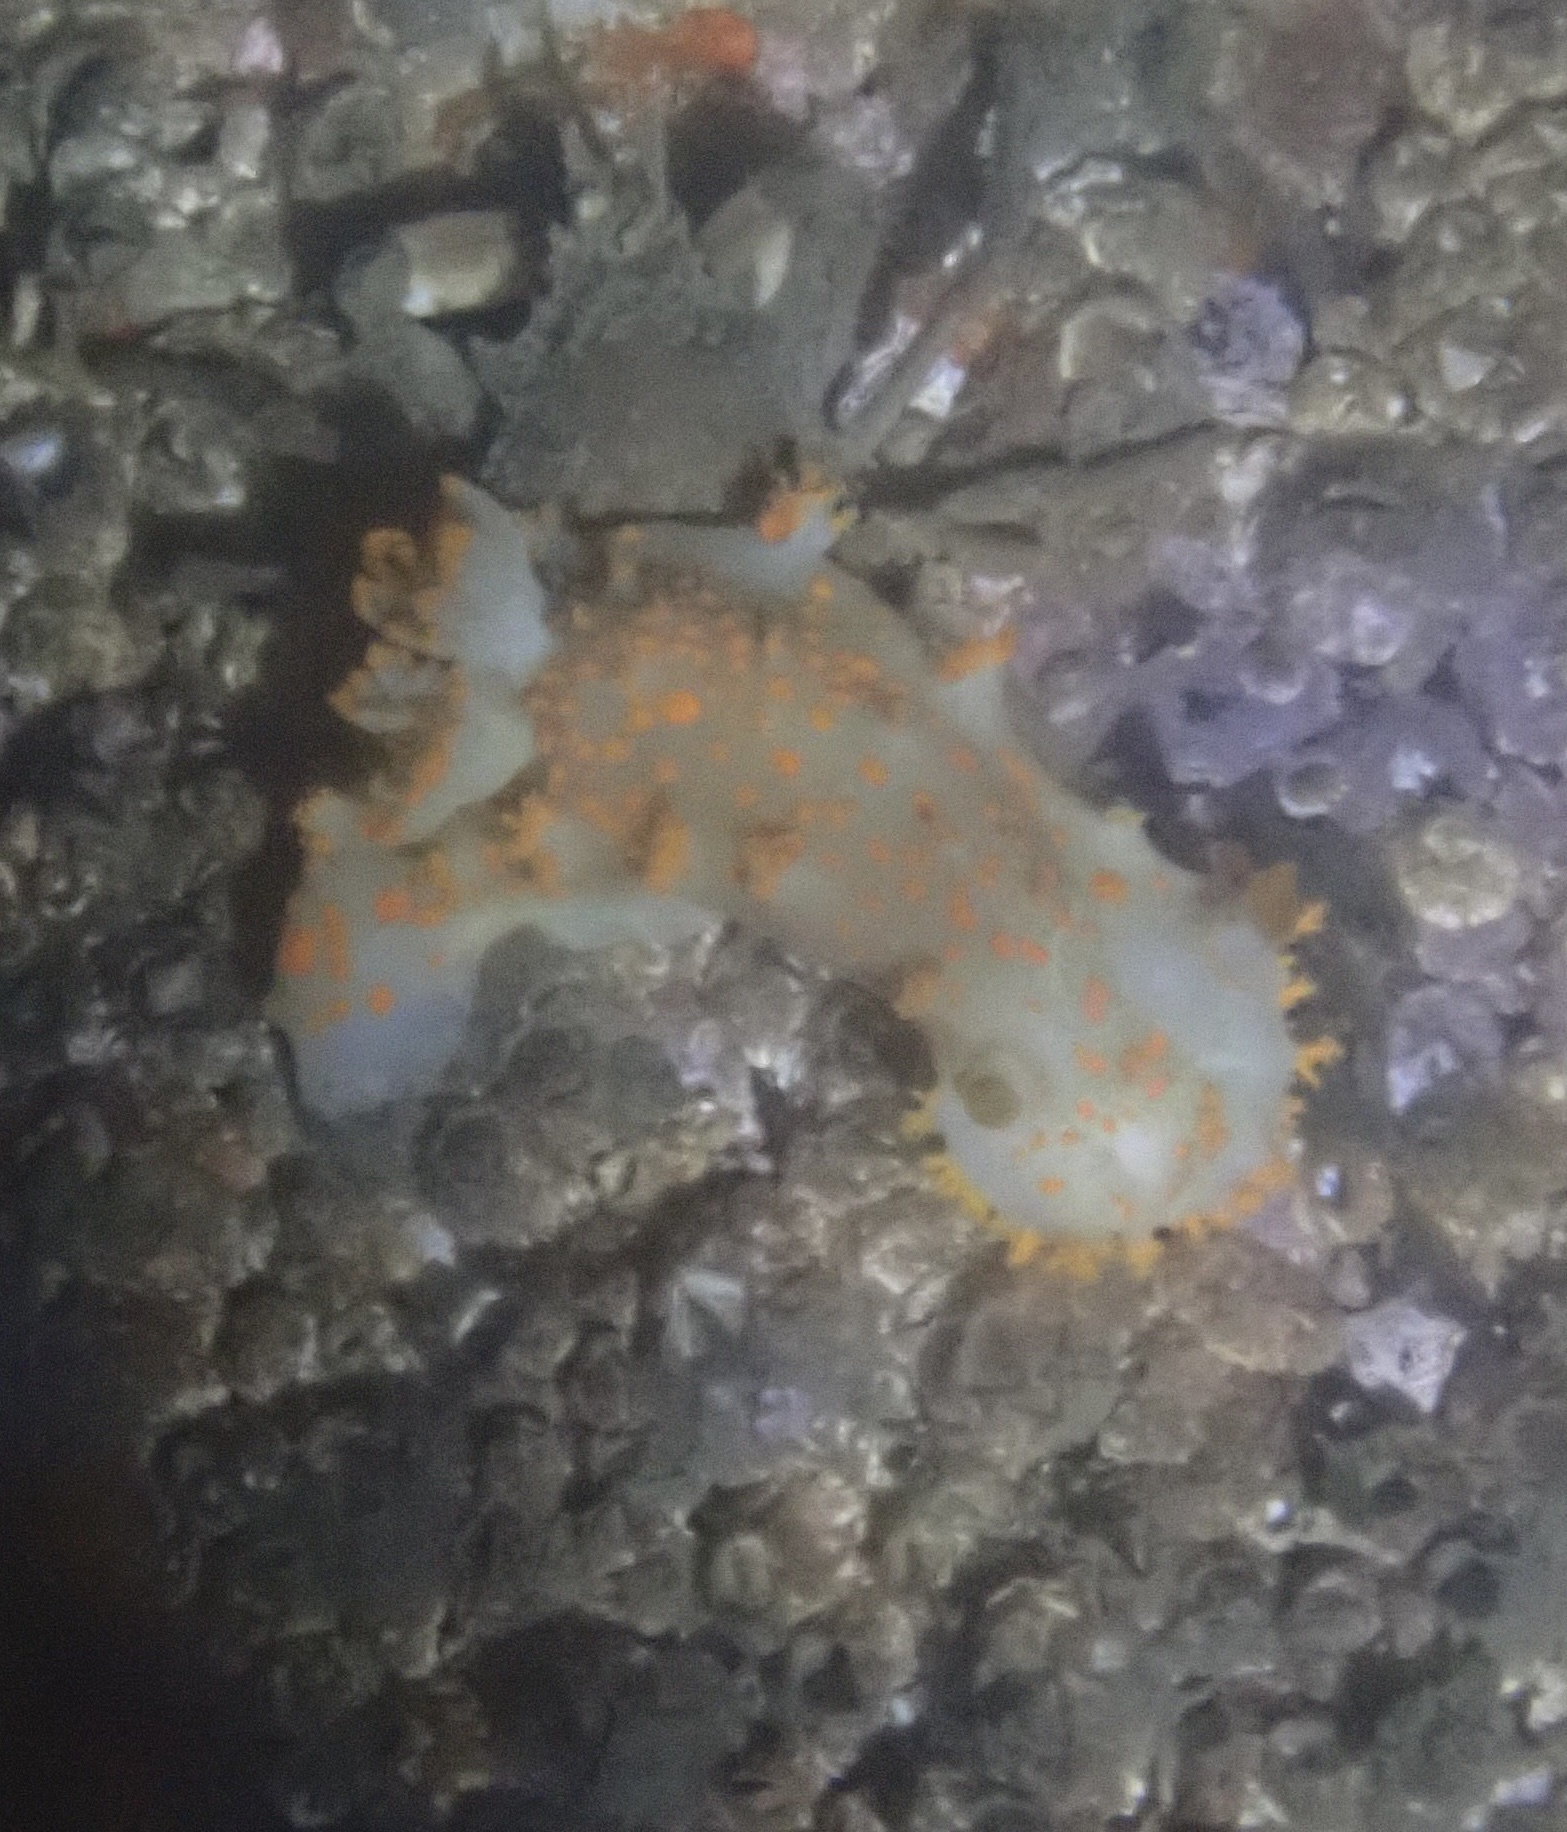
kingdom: Animalia
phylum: Mollusca
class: Gastropoda
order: Nudibranchia
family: Polyceridae
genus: Triopha
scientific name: Triopha modesta
